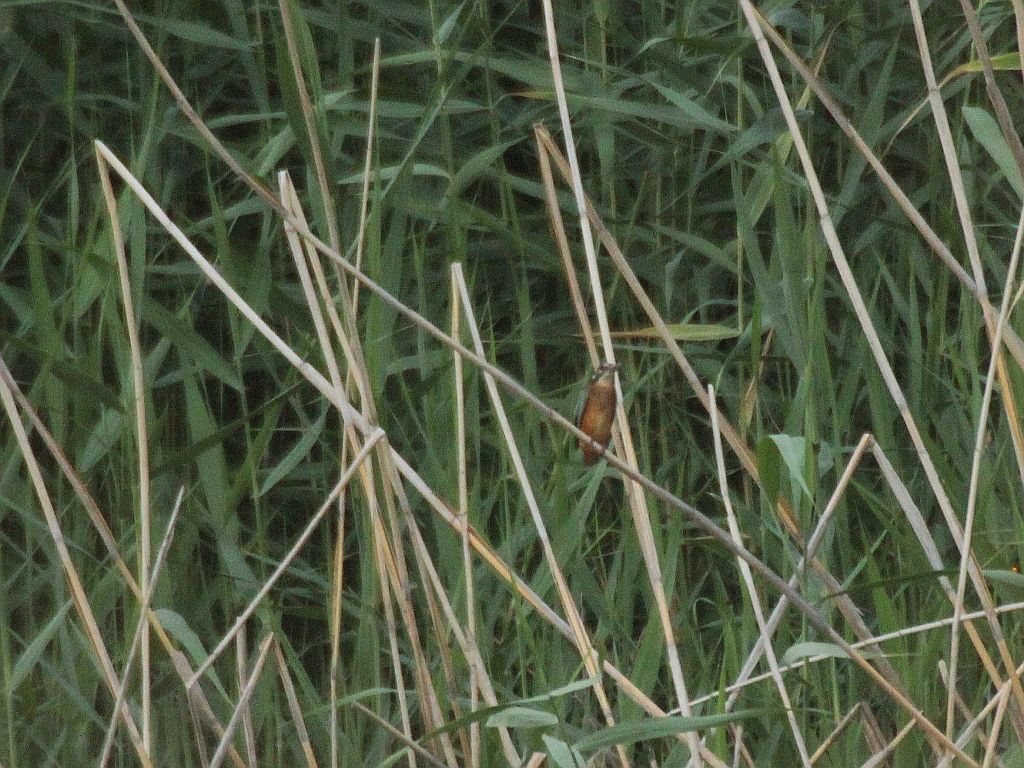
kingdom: Animalia
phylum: Chordata
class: Aves
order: Coraciiformes
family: Alcedinidae
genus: Alcedo
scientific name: Alcedo atthis
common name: Common kingfisher
